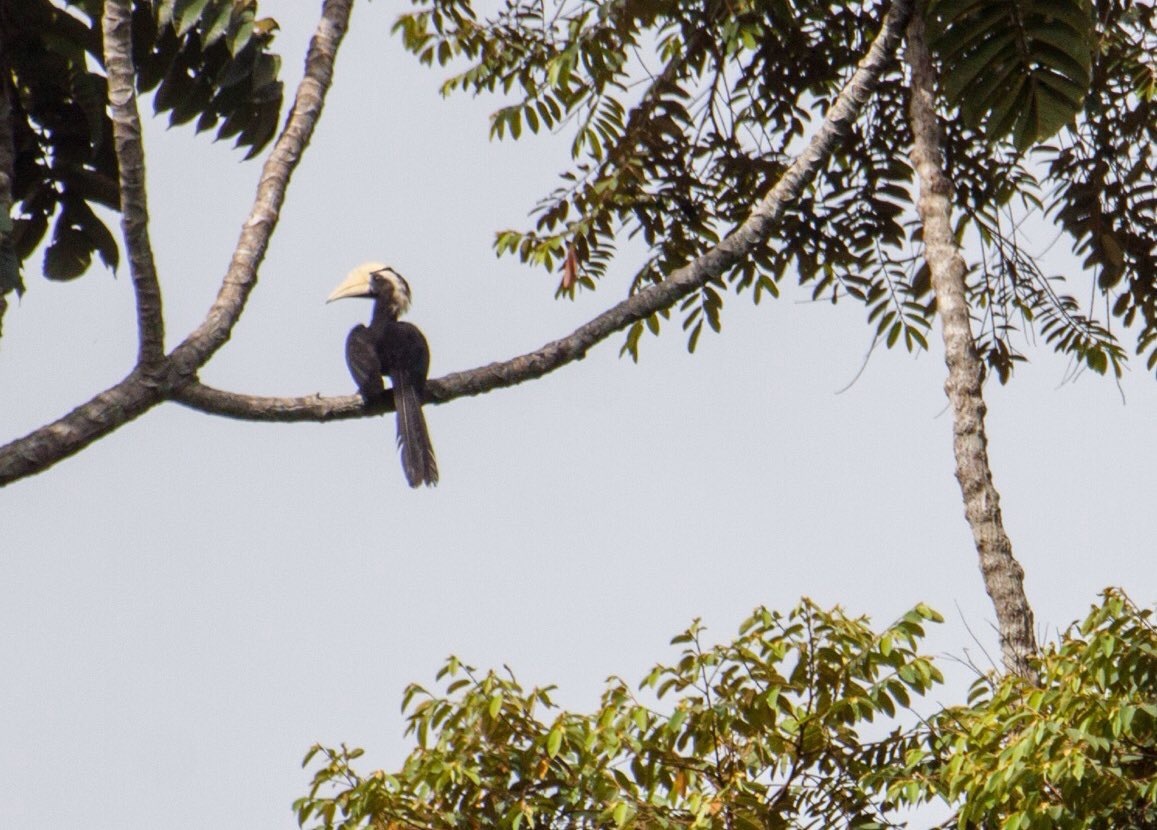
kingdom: Animalia
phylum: Chordata
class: Aves
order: Bucerotiformes
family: Bucerotidae
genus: Anthracoceros
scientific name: Anthracoceros malayanus
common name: Black hornbill
